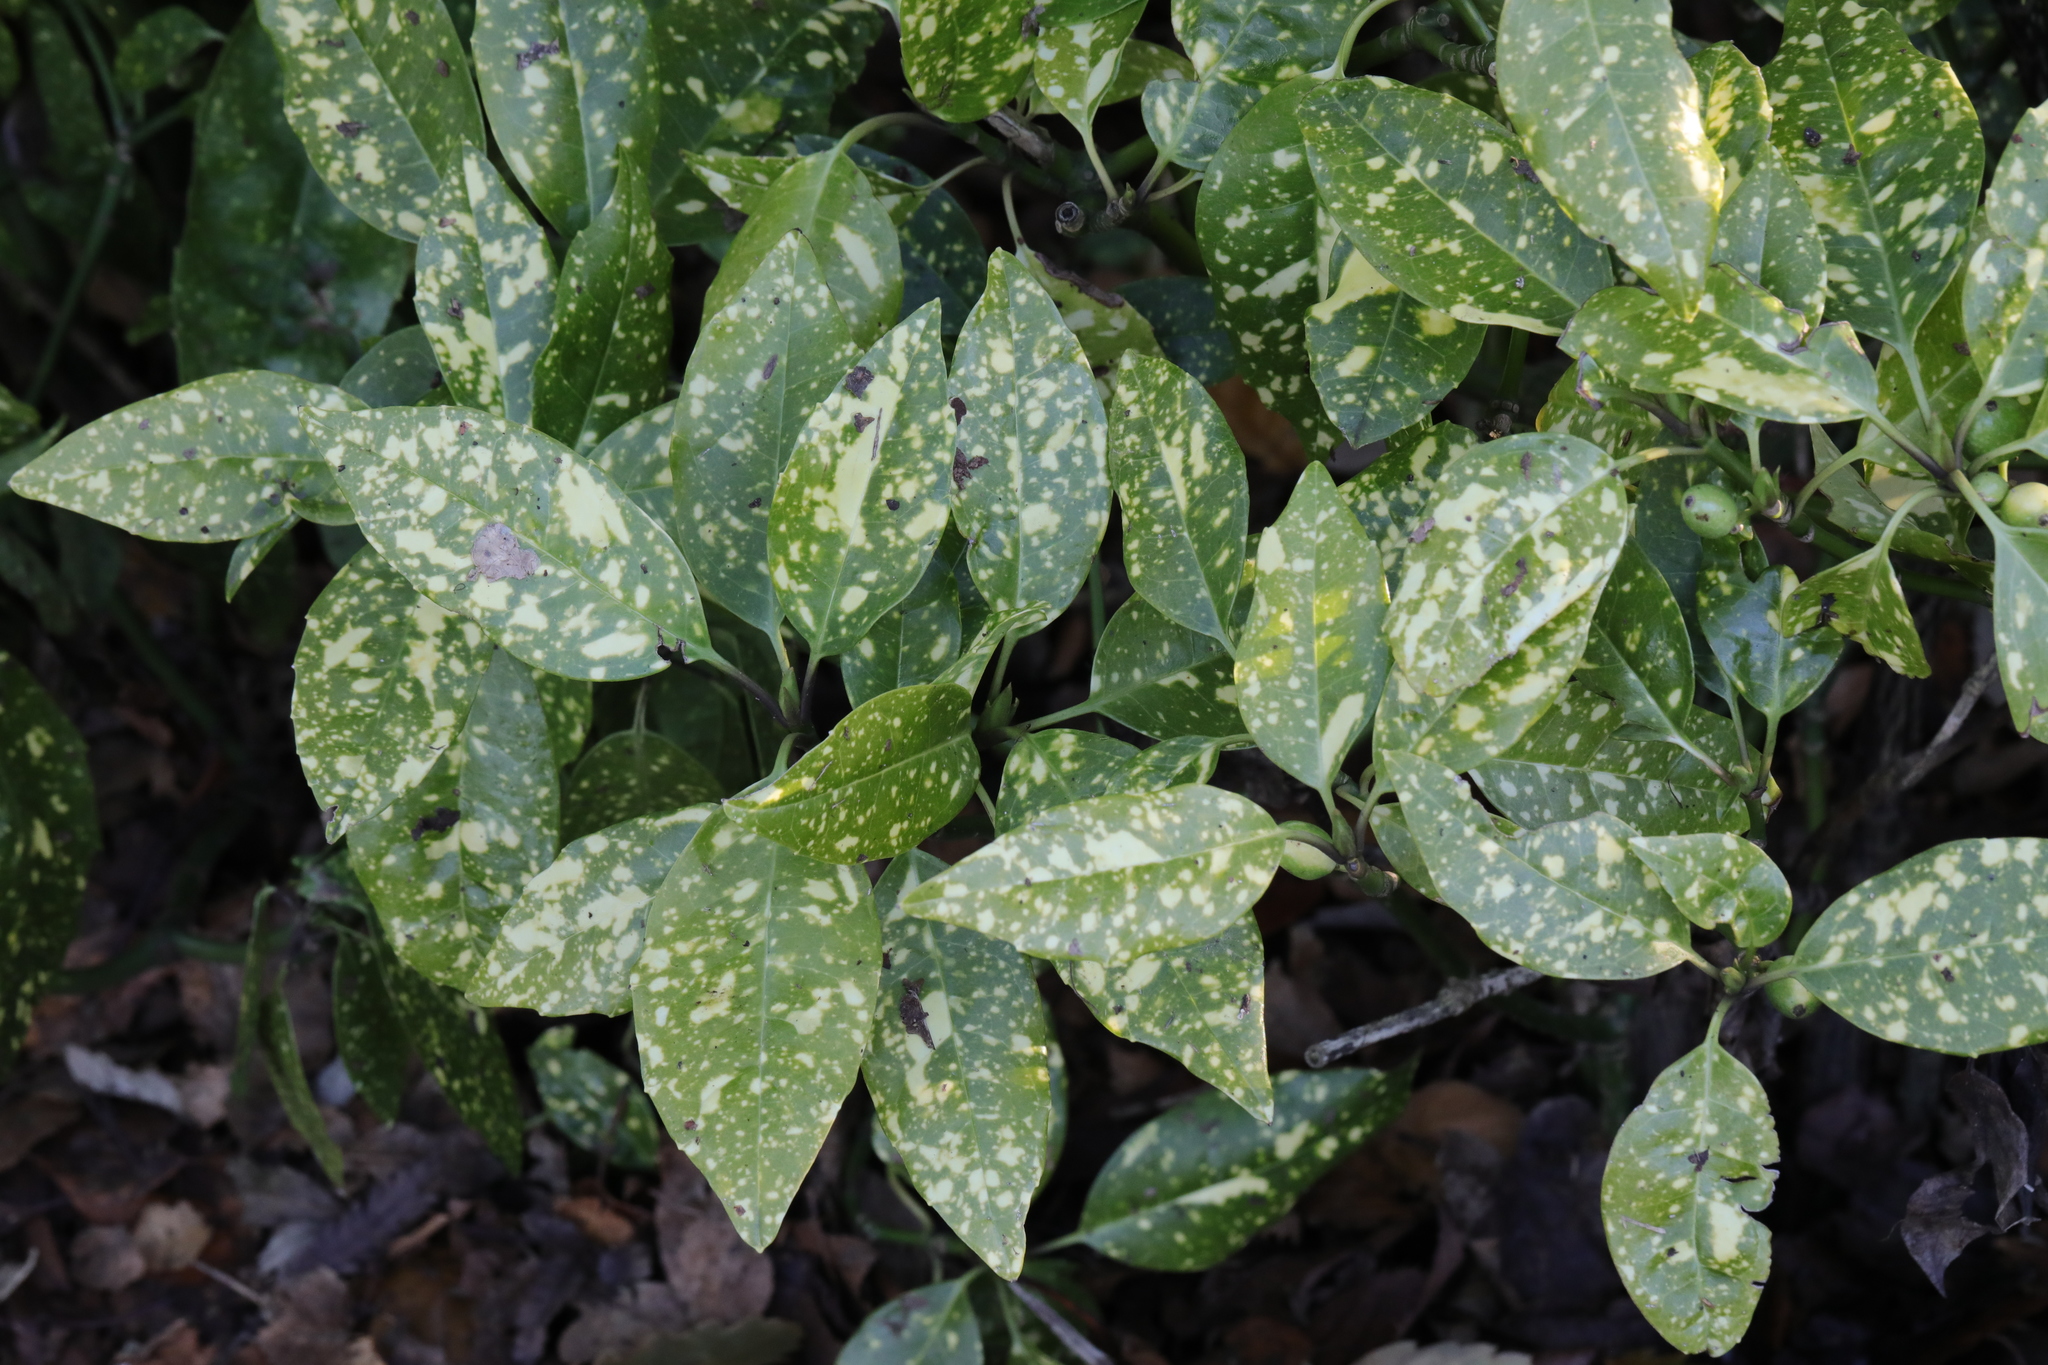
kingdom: Plantae
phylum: Tracheophyta
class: Magnoliopsida
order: Garryales
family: Garryaceae
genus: Aucuba
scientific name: Aucuba japonica
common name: Spotted-laurel
